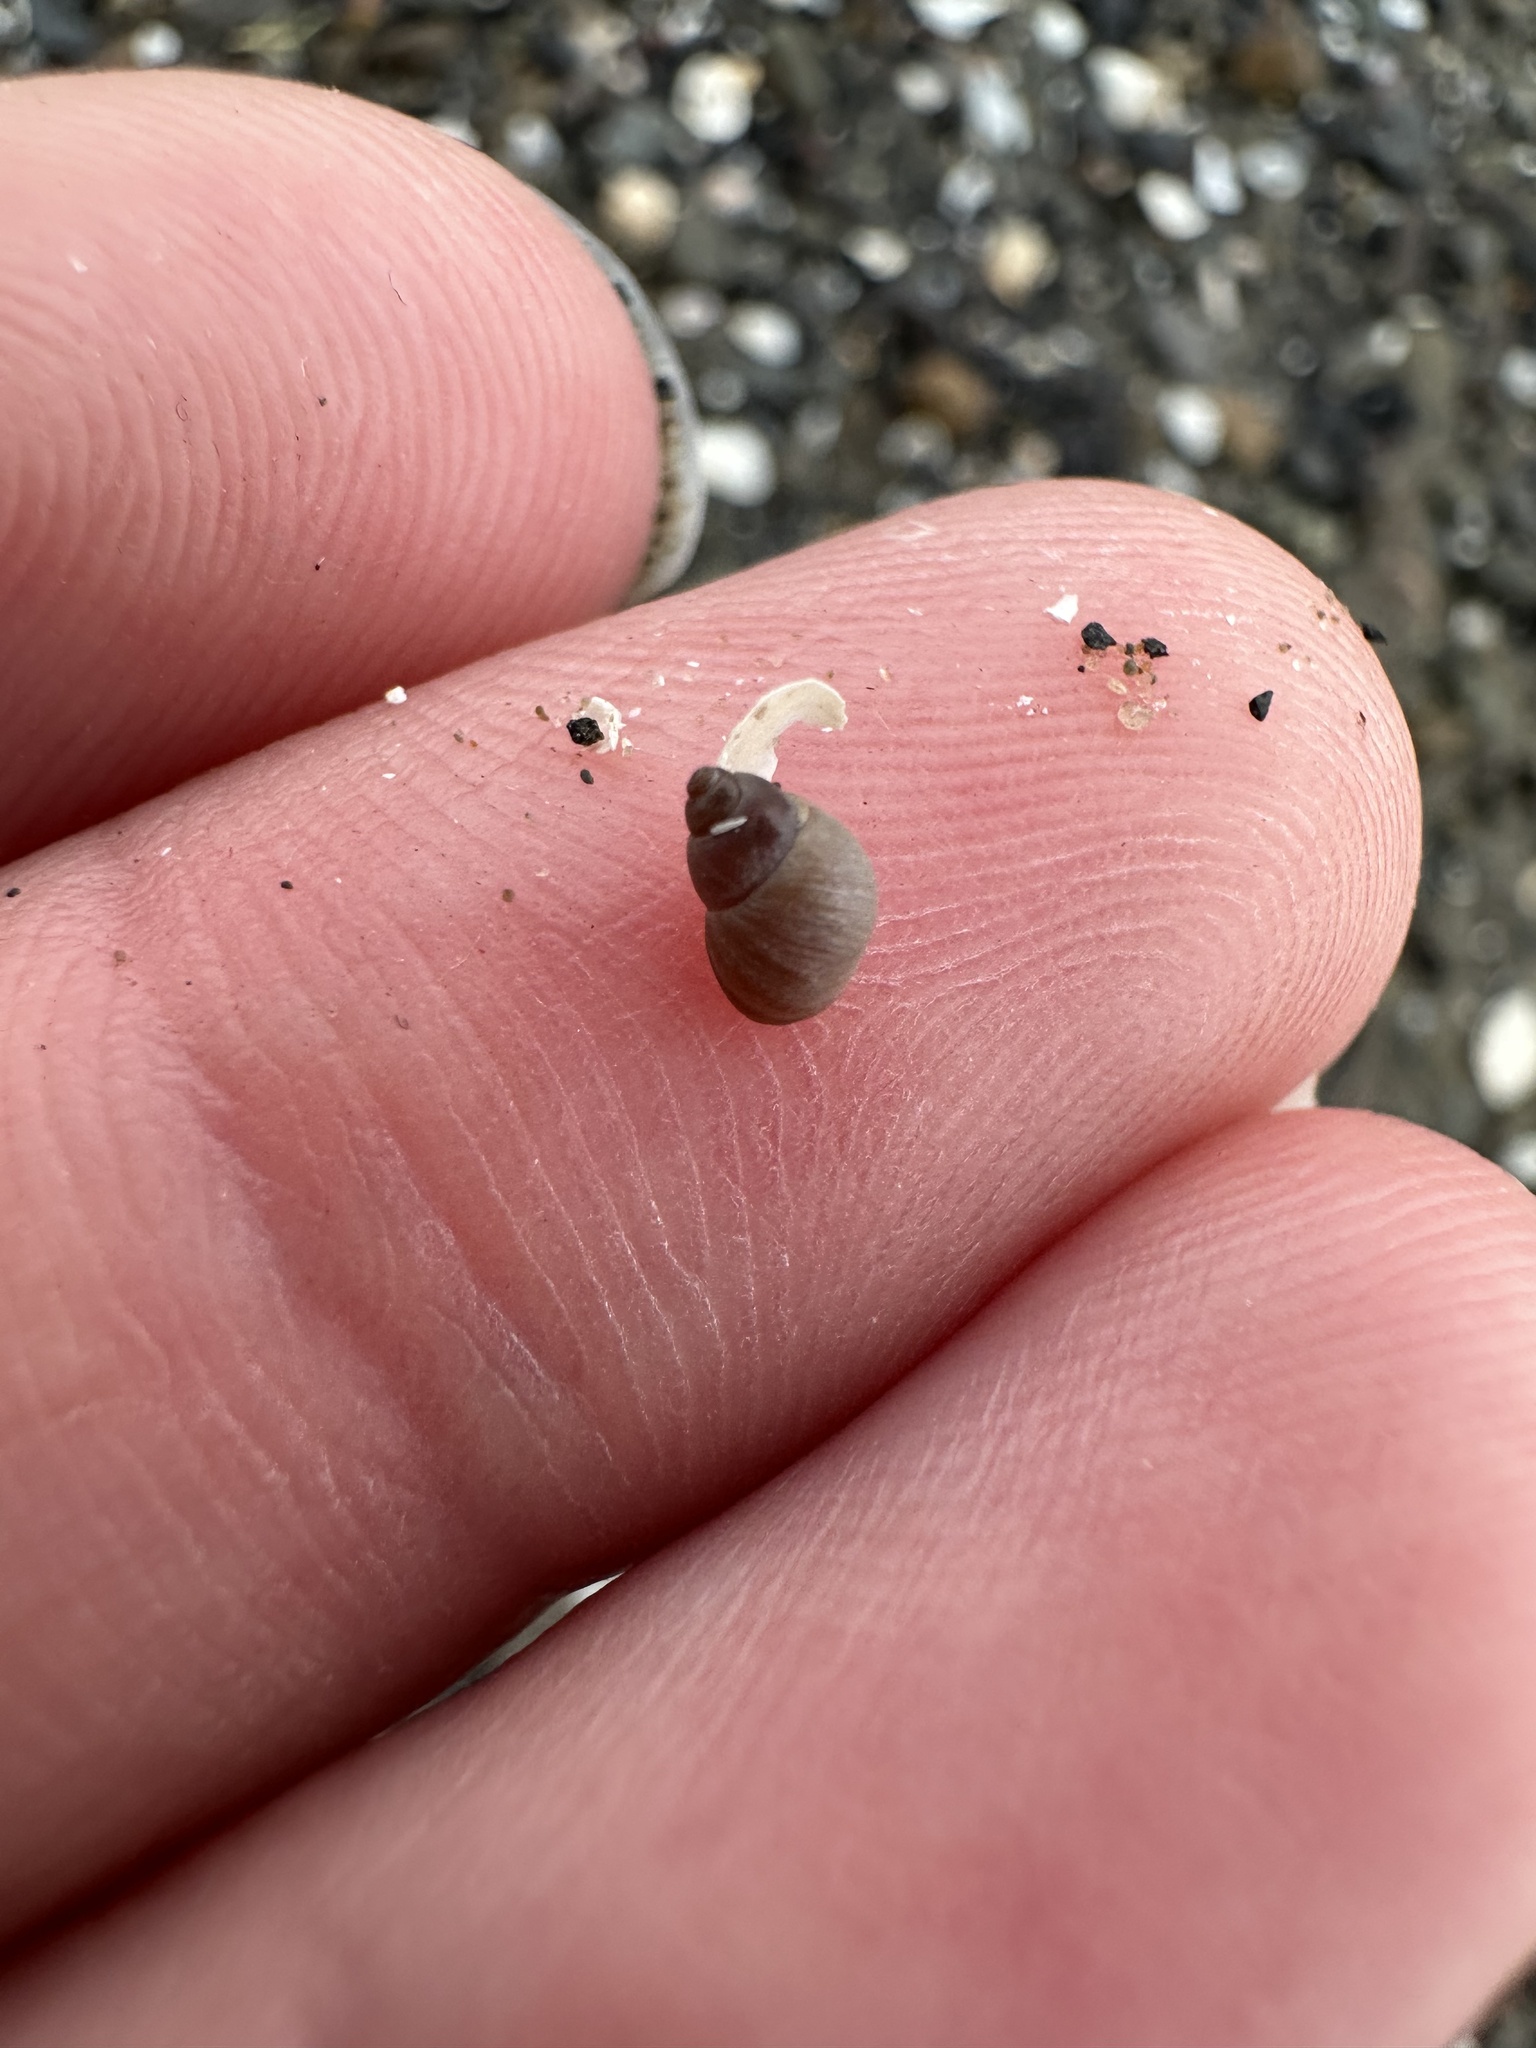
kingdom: Animalia
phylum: Mollusca
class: Gastropoda
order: Littorinimorpha
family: Littorinidae
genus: Lacuna
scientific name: Lacuna vincta
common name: Banded chink shell
